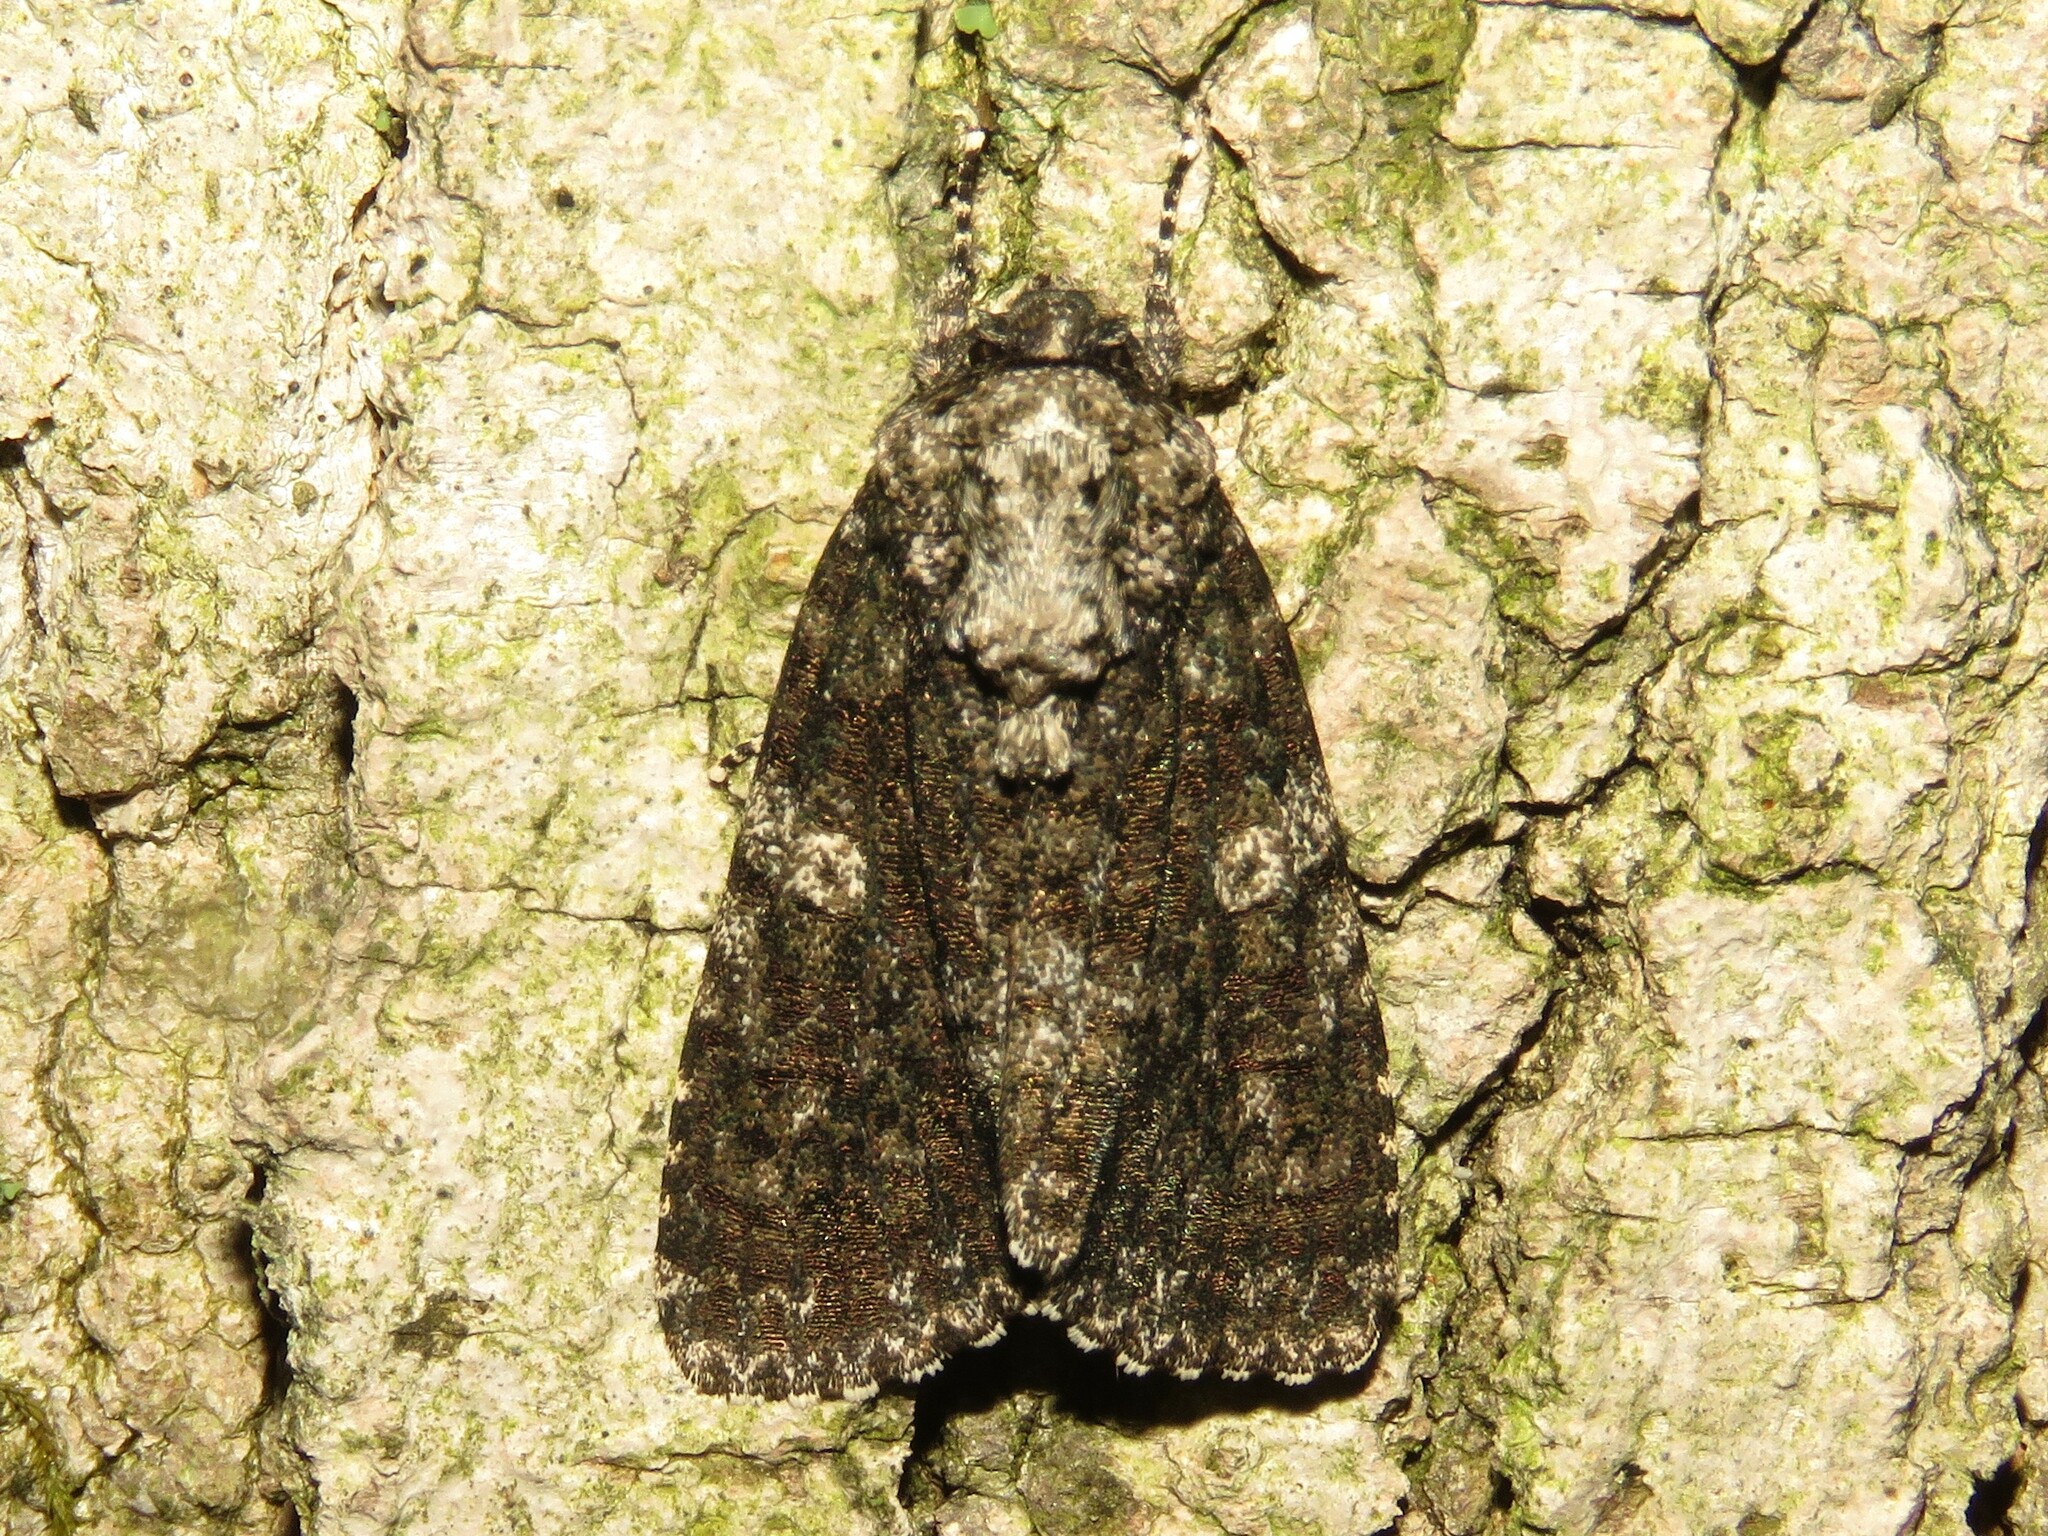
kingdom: Animalia
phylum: Arthropoda
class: Insecta
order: Lepidoptera
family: Noctuidae
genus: Acronicta
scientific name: Acronicta afflicta
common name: Afflicted dagger moth
